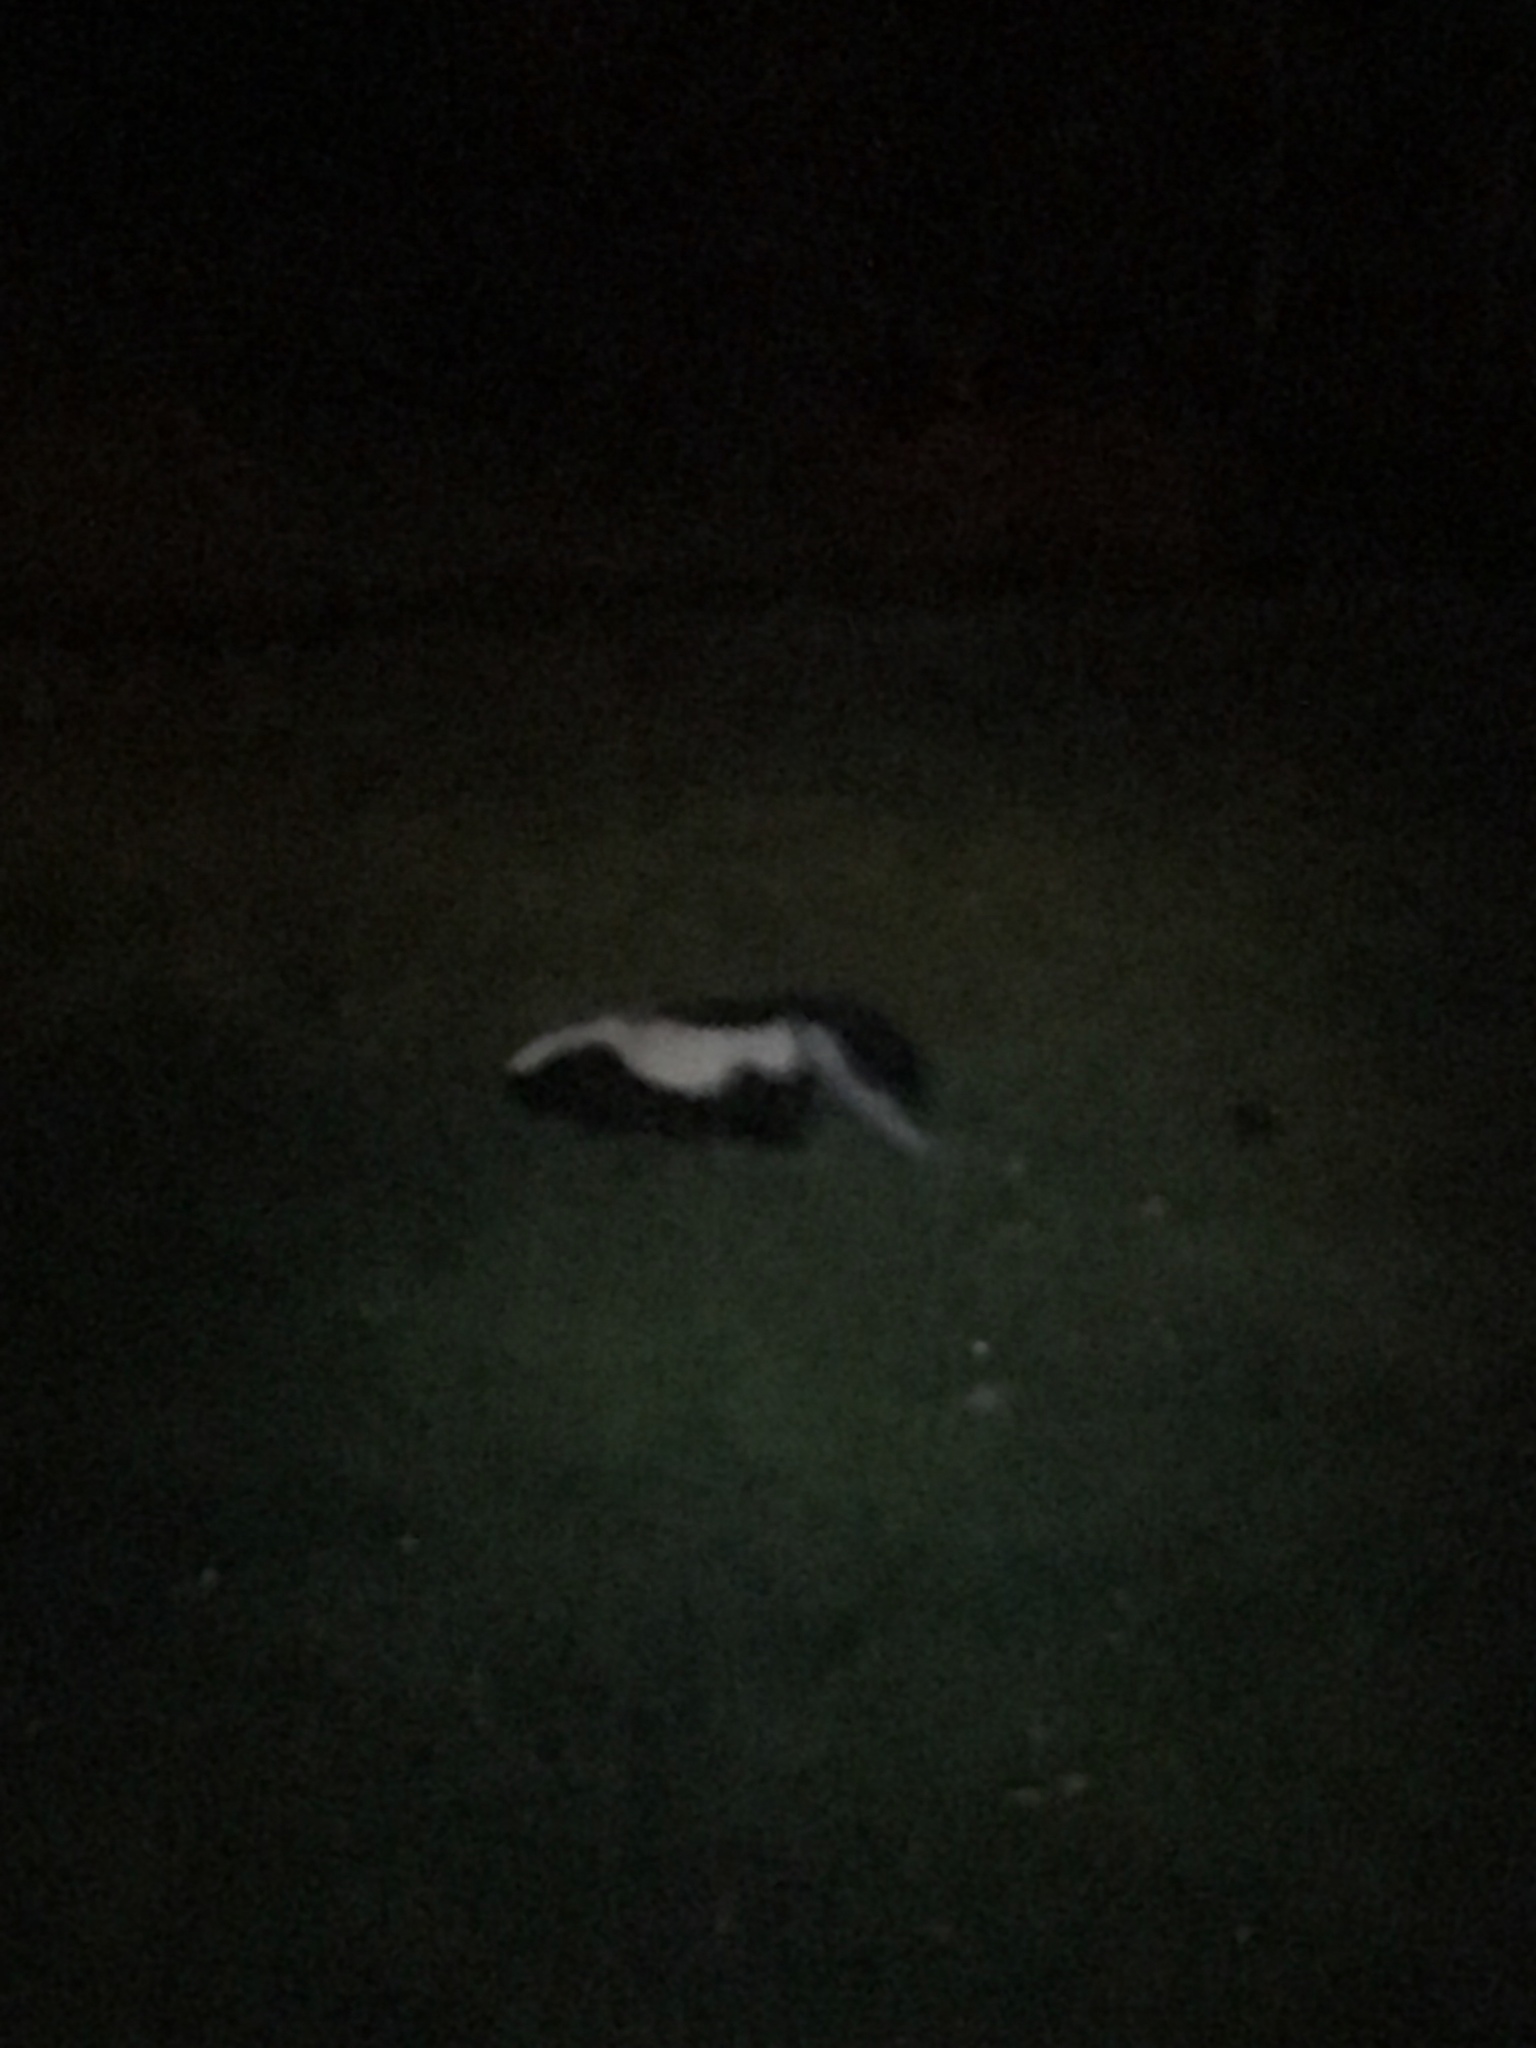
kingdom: Animalia
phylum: Chordata
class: Mammalia
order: Carnivora
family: Mephitidae
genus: Mephitis
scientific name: Mephitis mephitis
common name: Striped skunk
